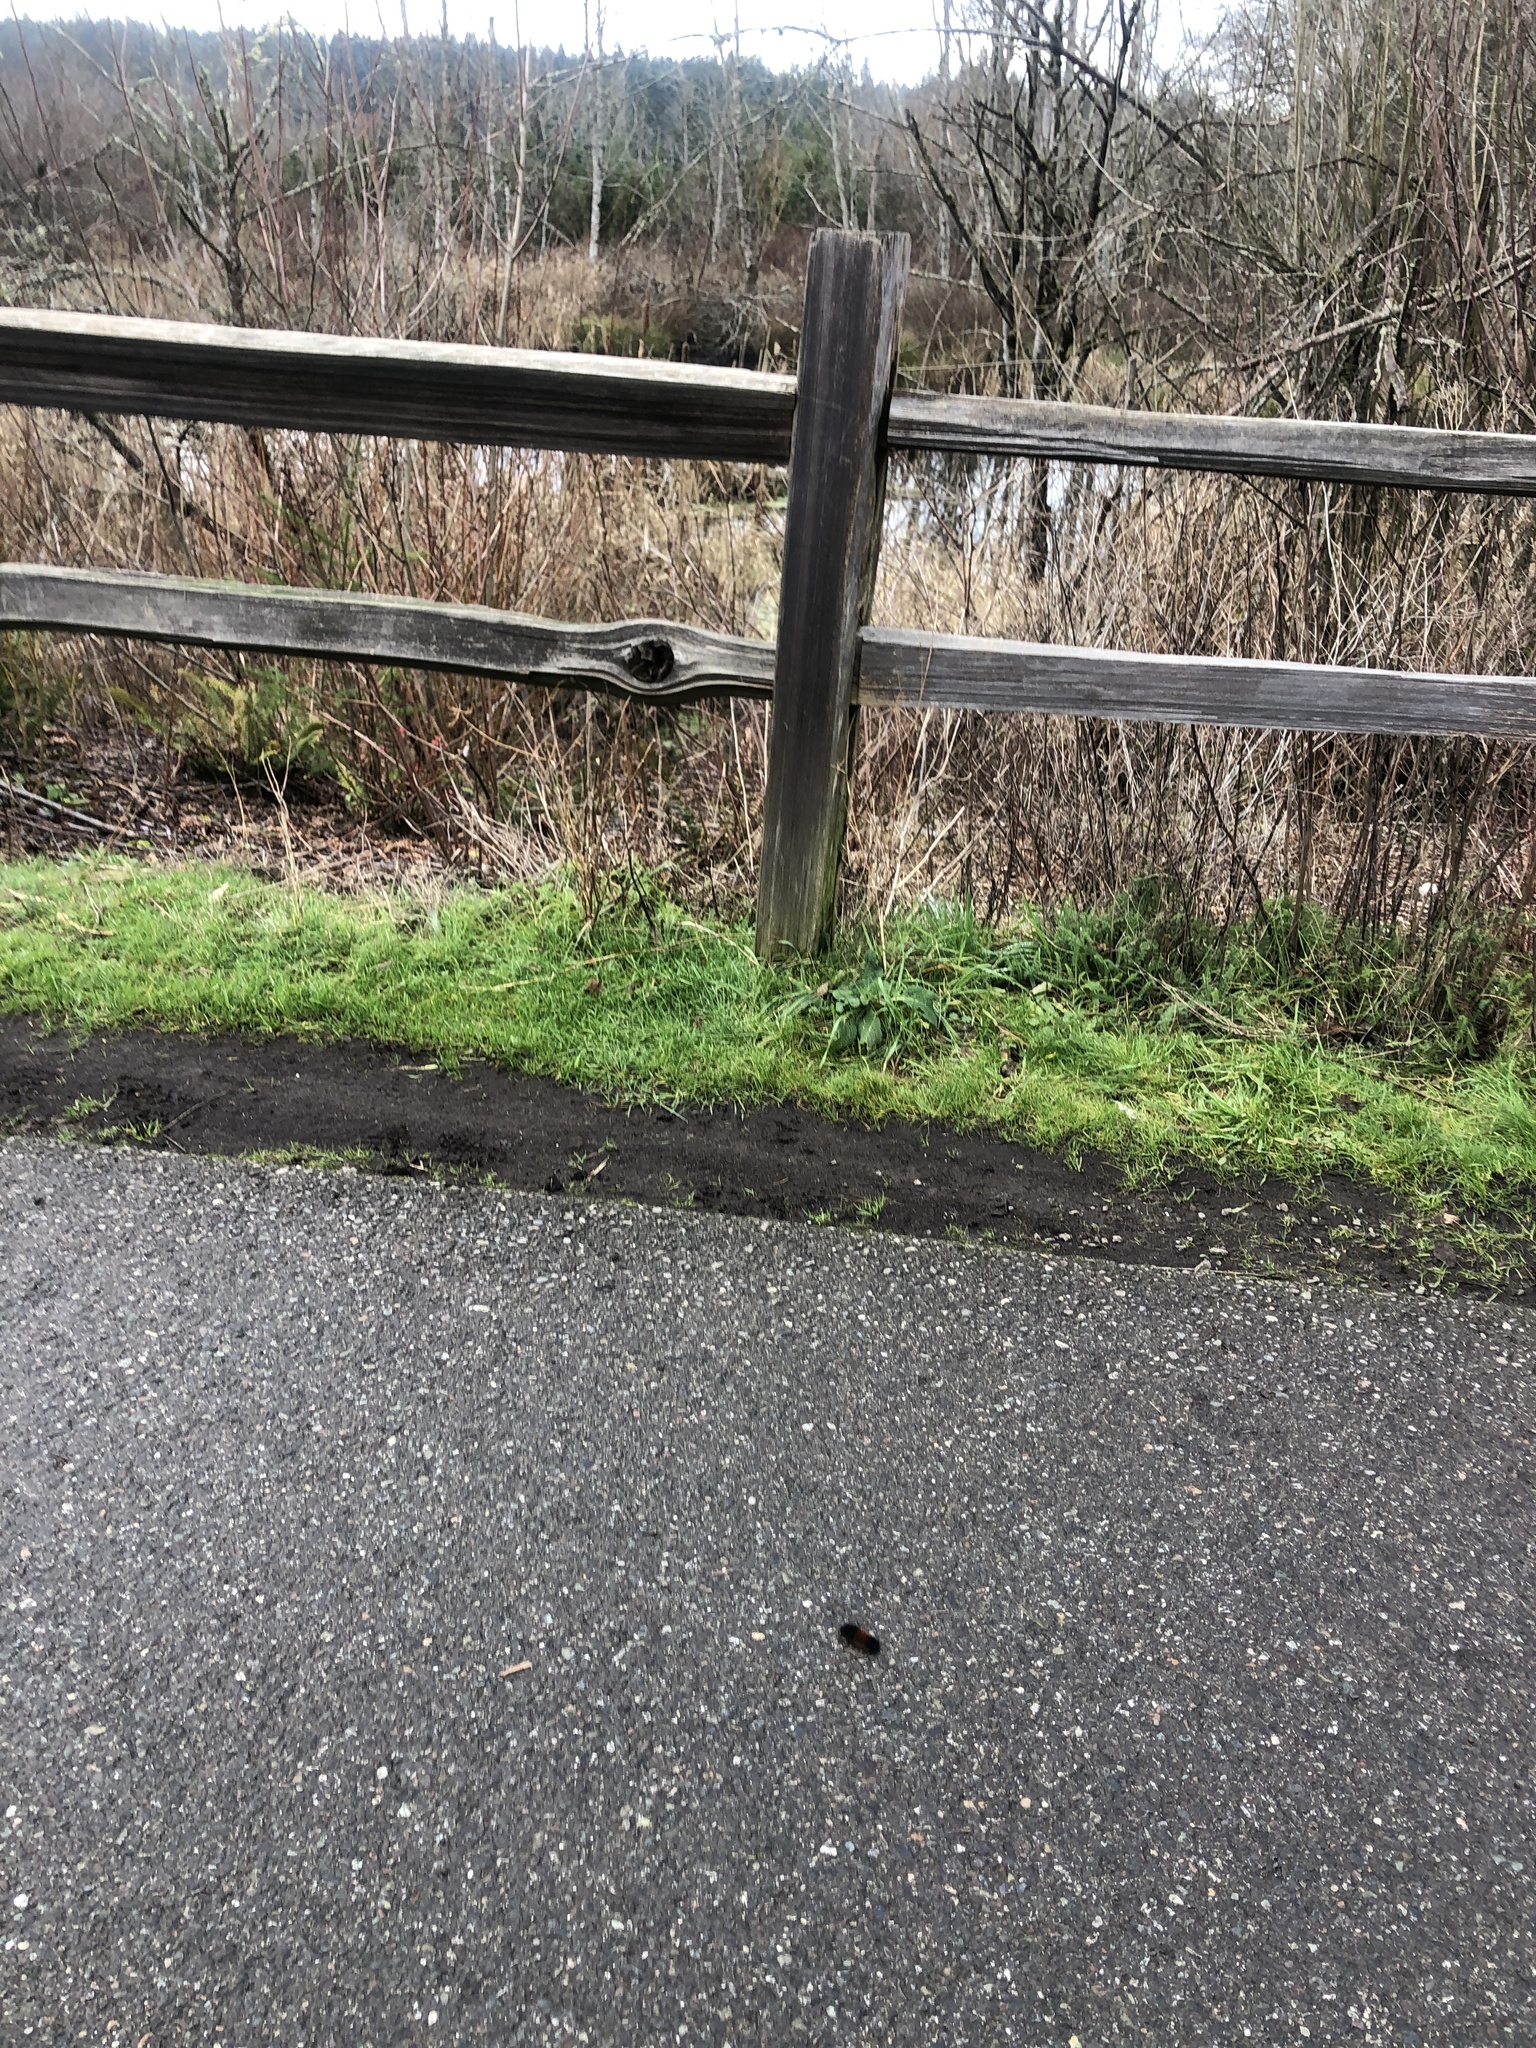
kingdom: Animalia
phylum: Arthropoda
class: Insecta
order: Lepidoptera
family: Erebidae
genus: Pyrrharctia
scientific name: Pyrrharctia isabella
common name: Isabella tiger moth
